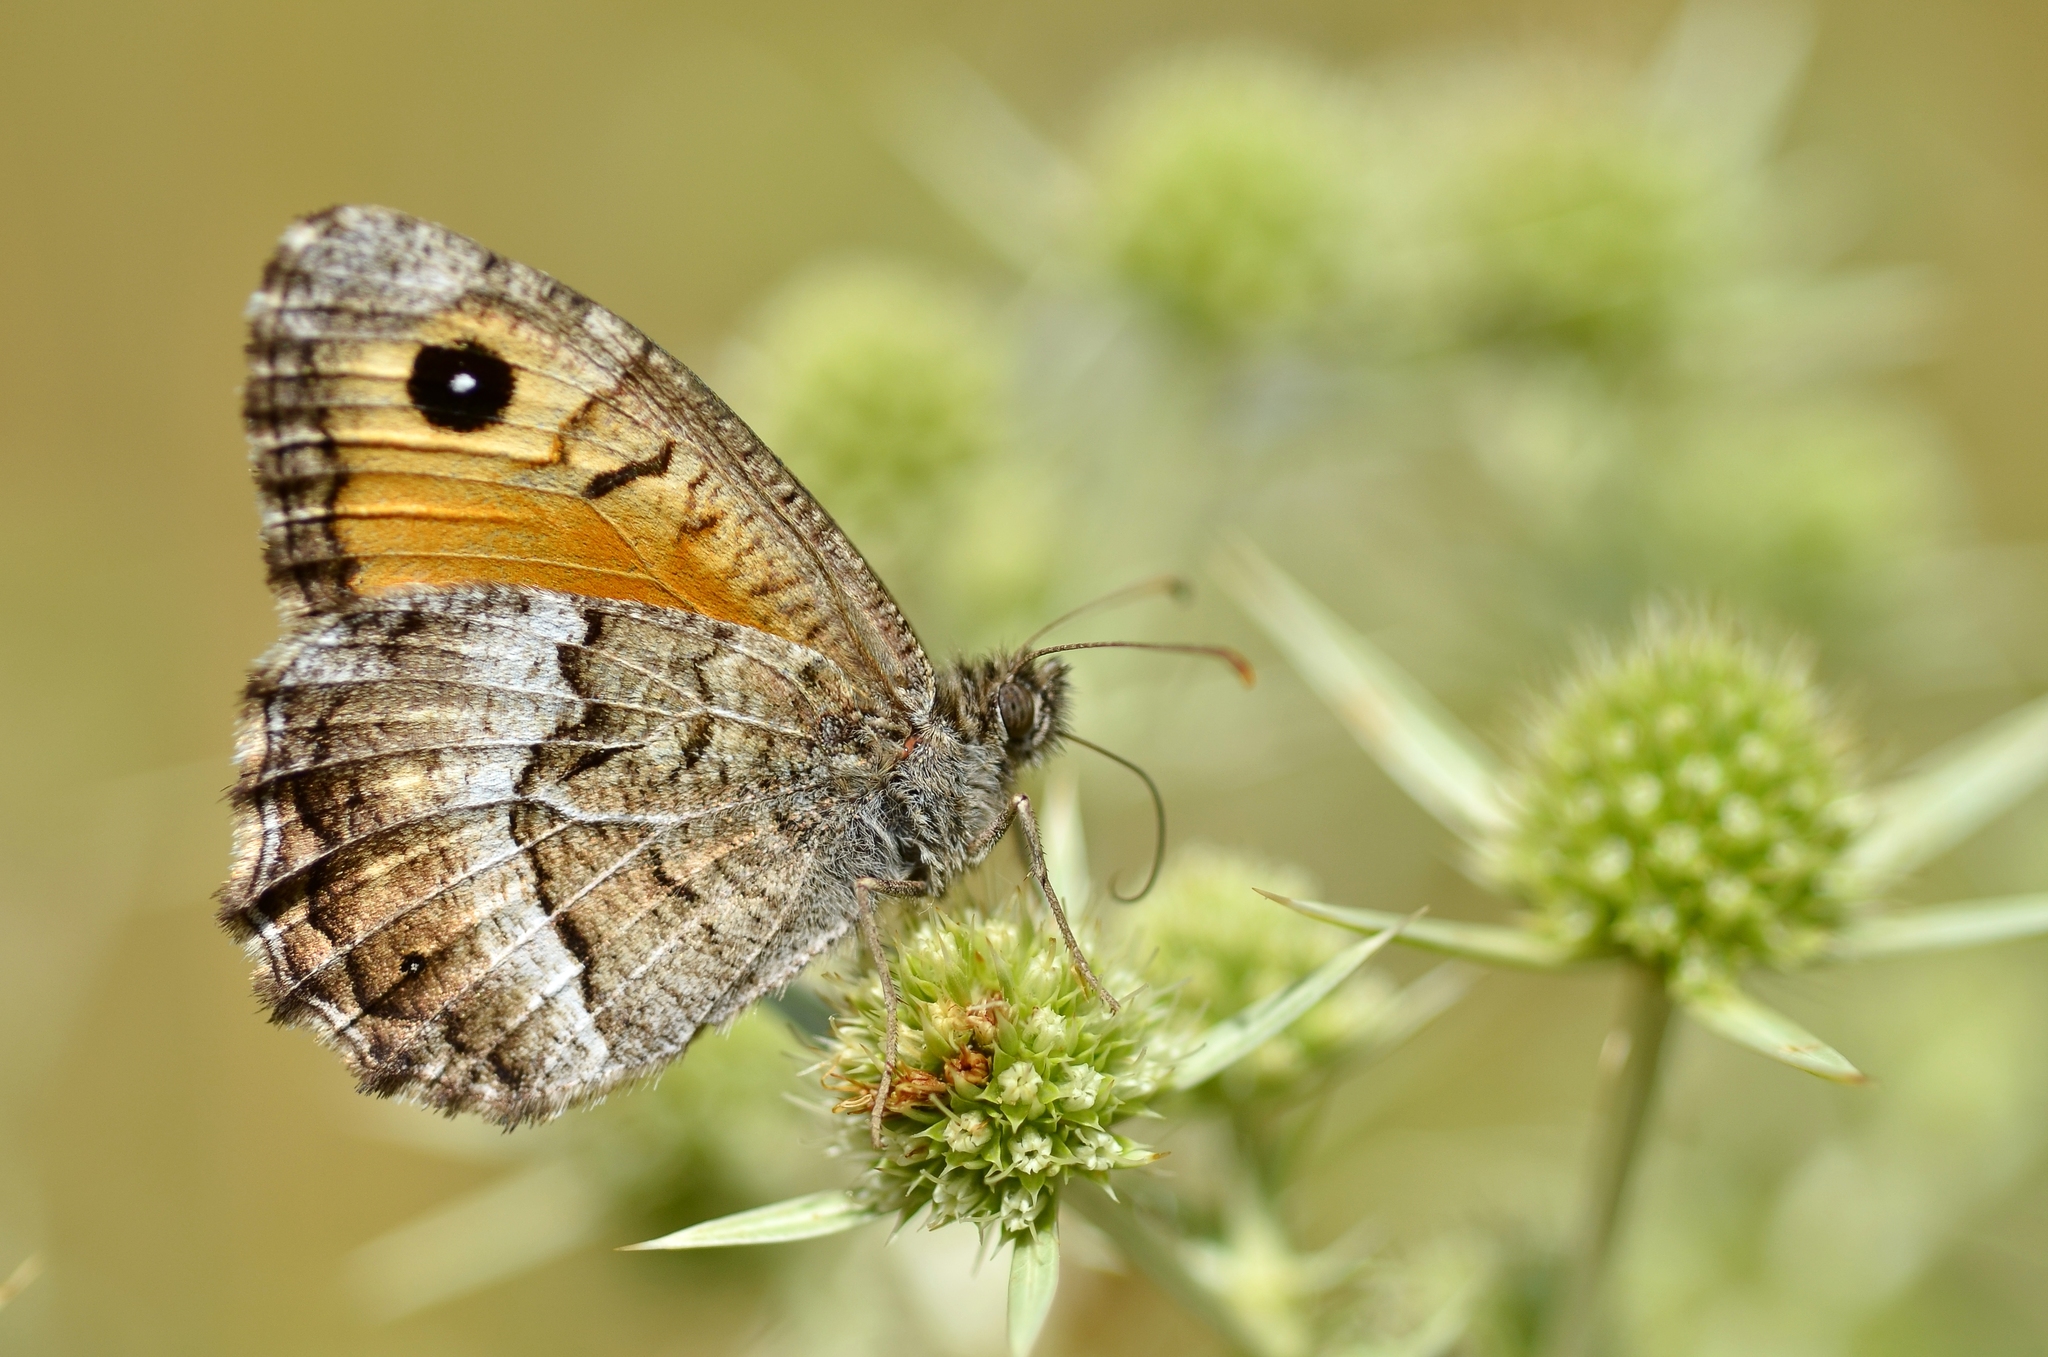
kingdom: Animalia
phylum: Arthropoda
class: Insecta
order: Lepidoptera
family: Nymphalidae
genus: Arethusana
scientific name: Arethusana arethusa
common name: False grayling
